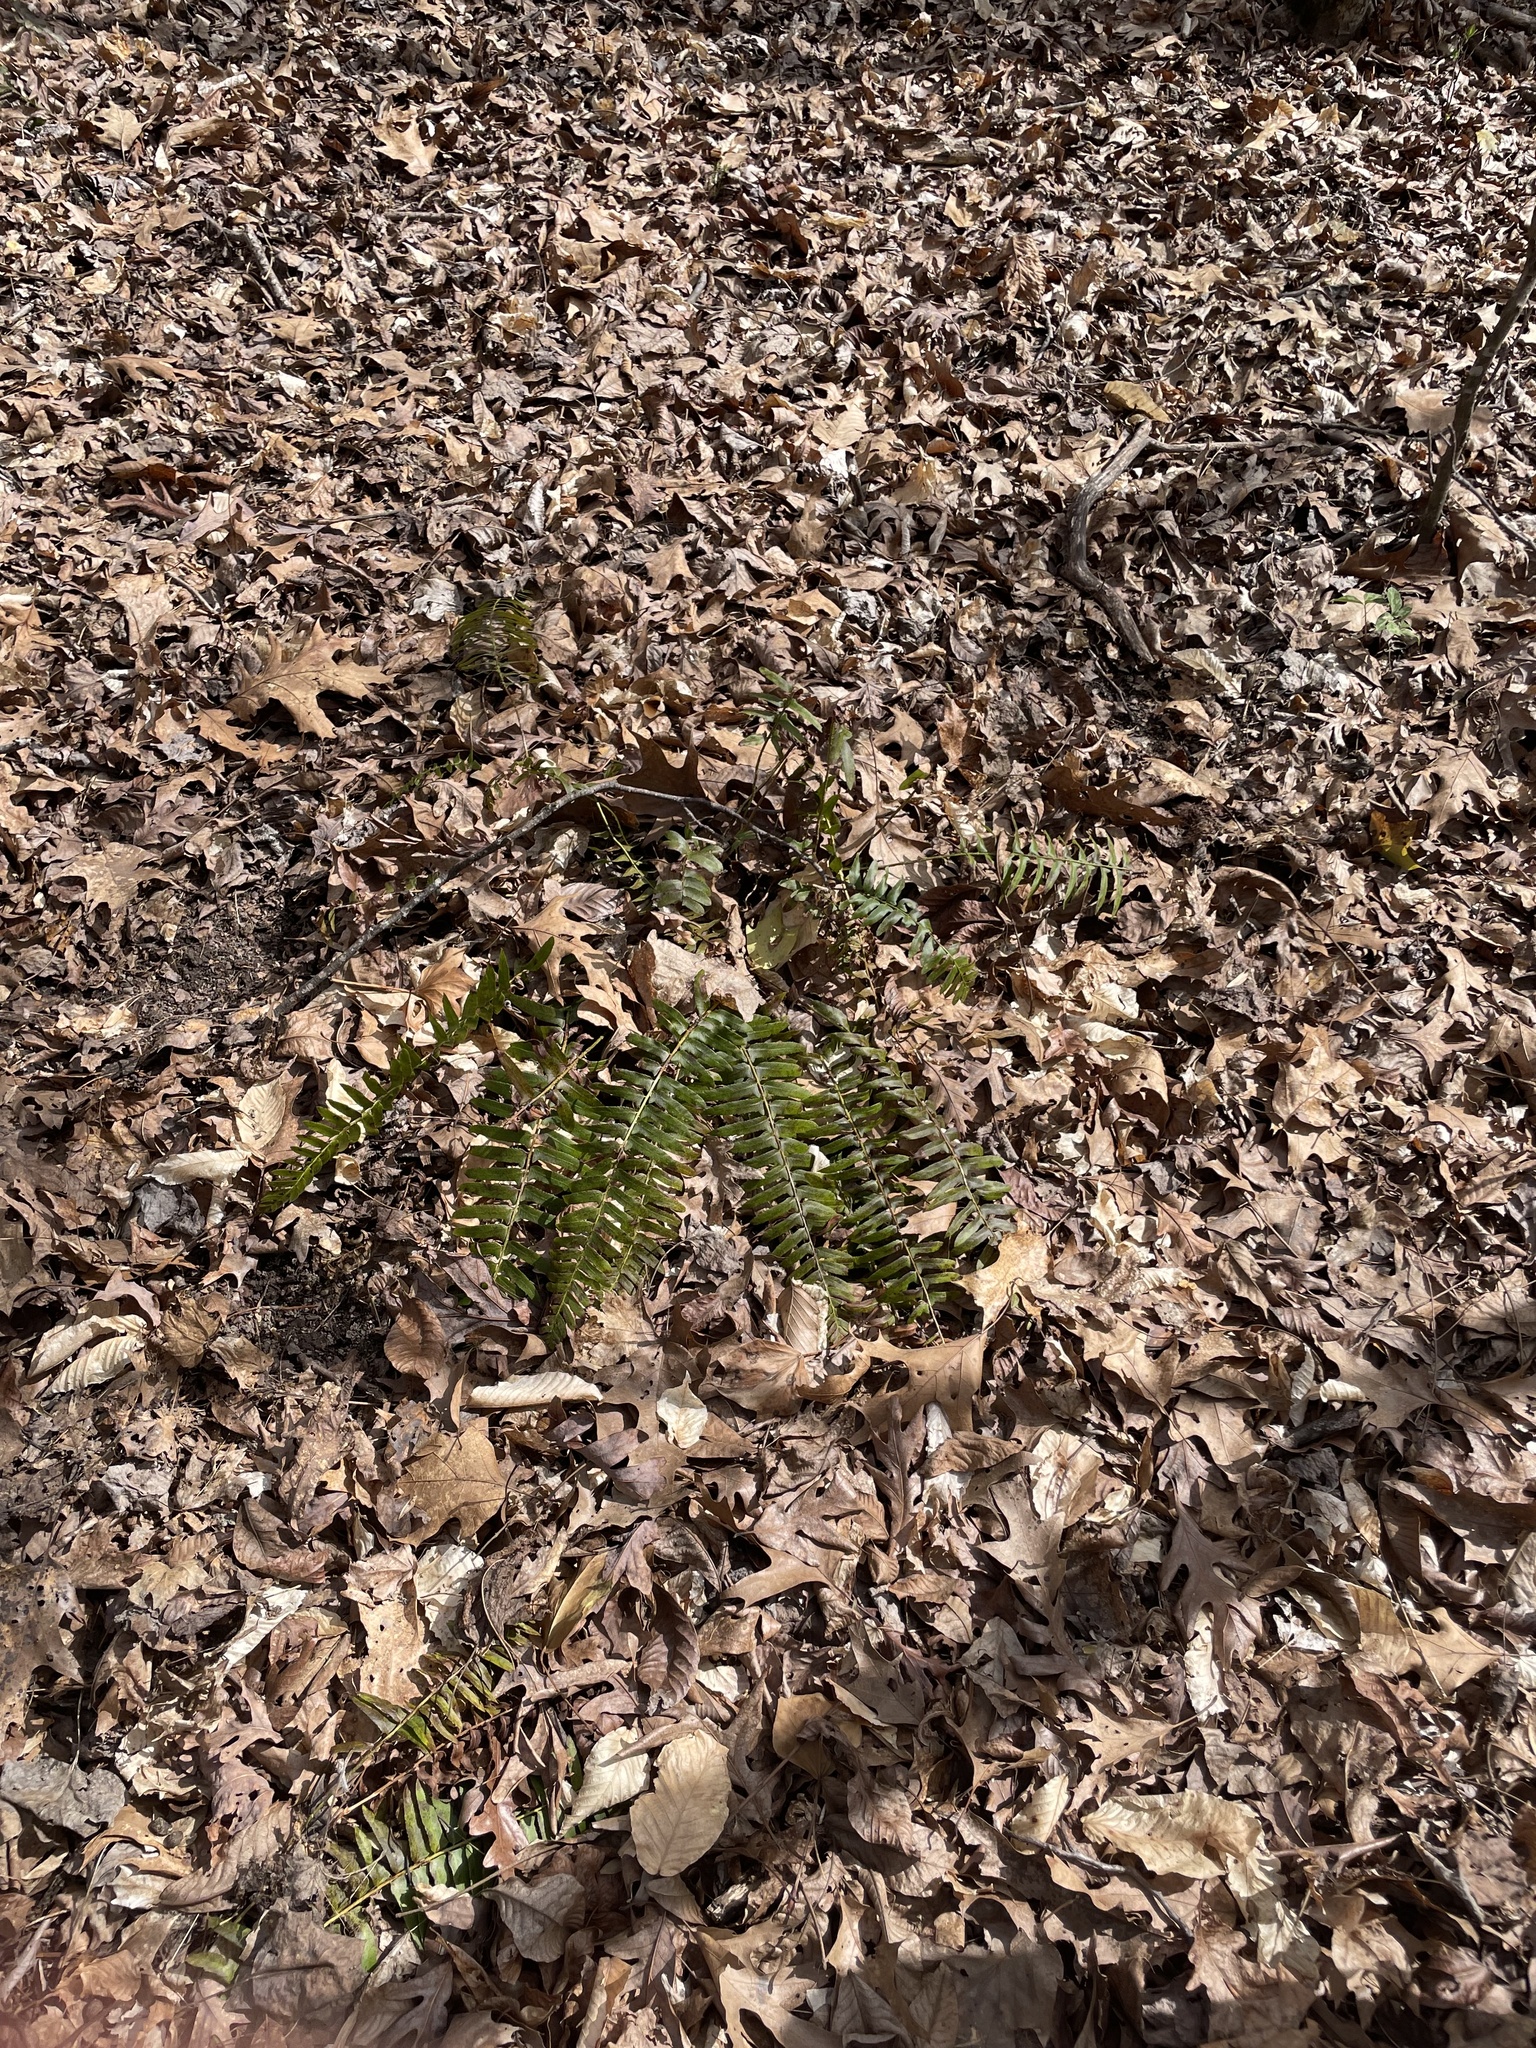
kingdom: Plantae
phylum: Tracheophyta
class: Polypodiopsida
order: Polypodiales
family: Dryopteridaceae
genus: Polystichum
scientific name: Polystichum acrostichoides
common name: Christmas fern
